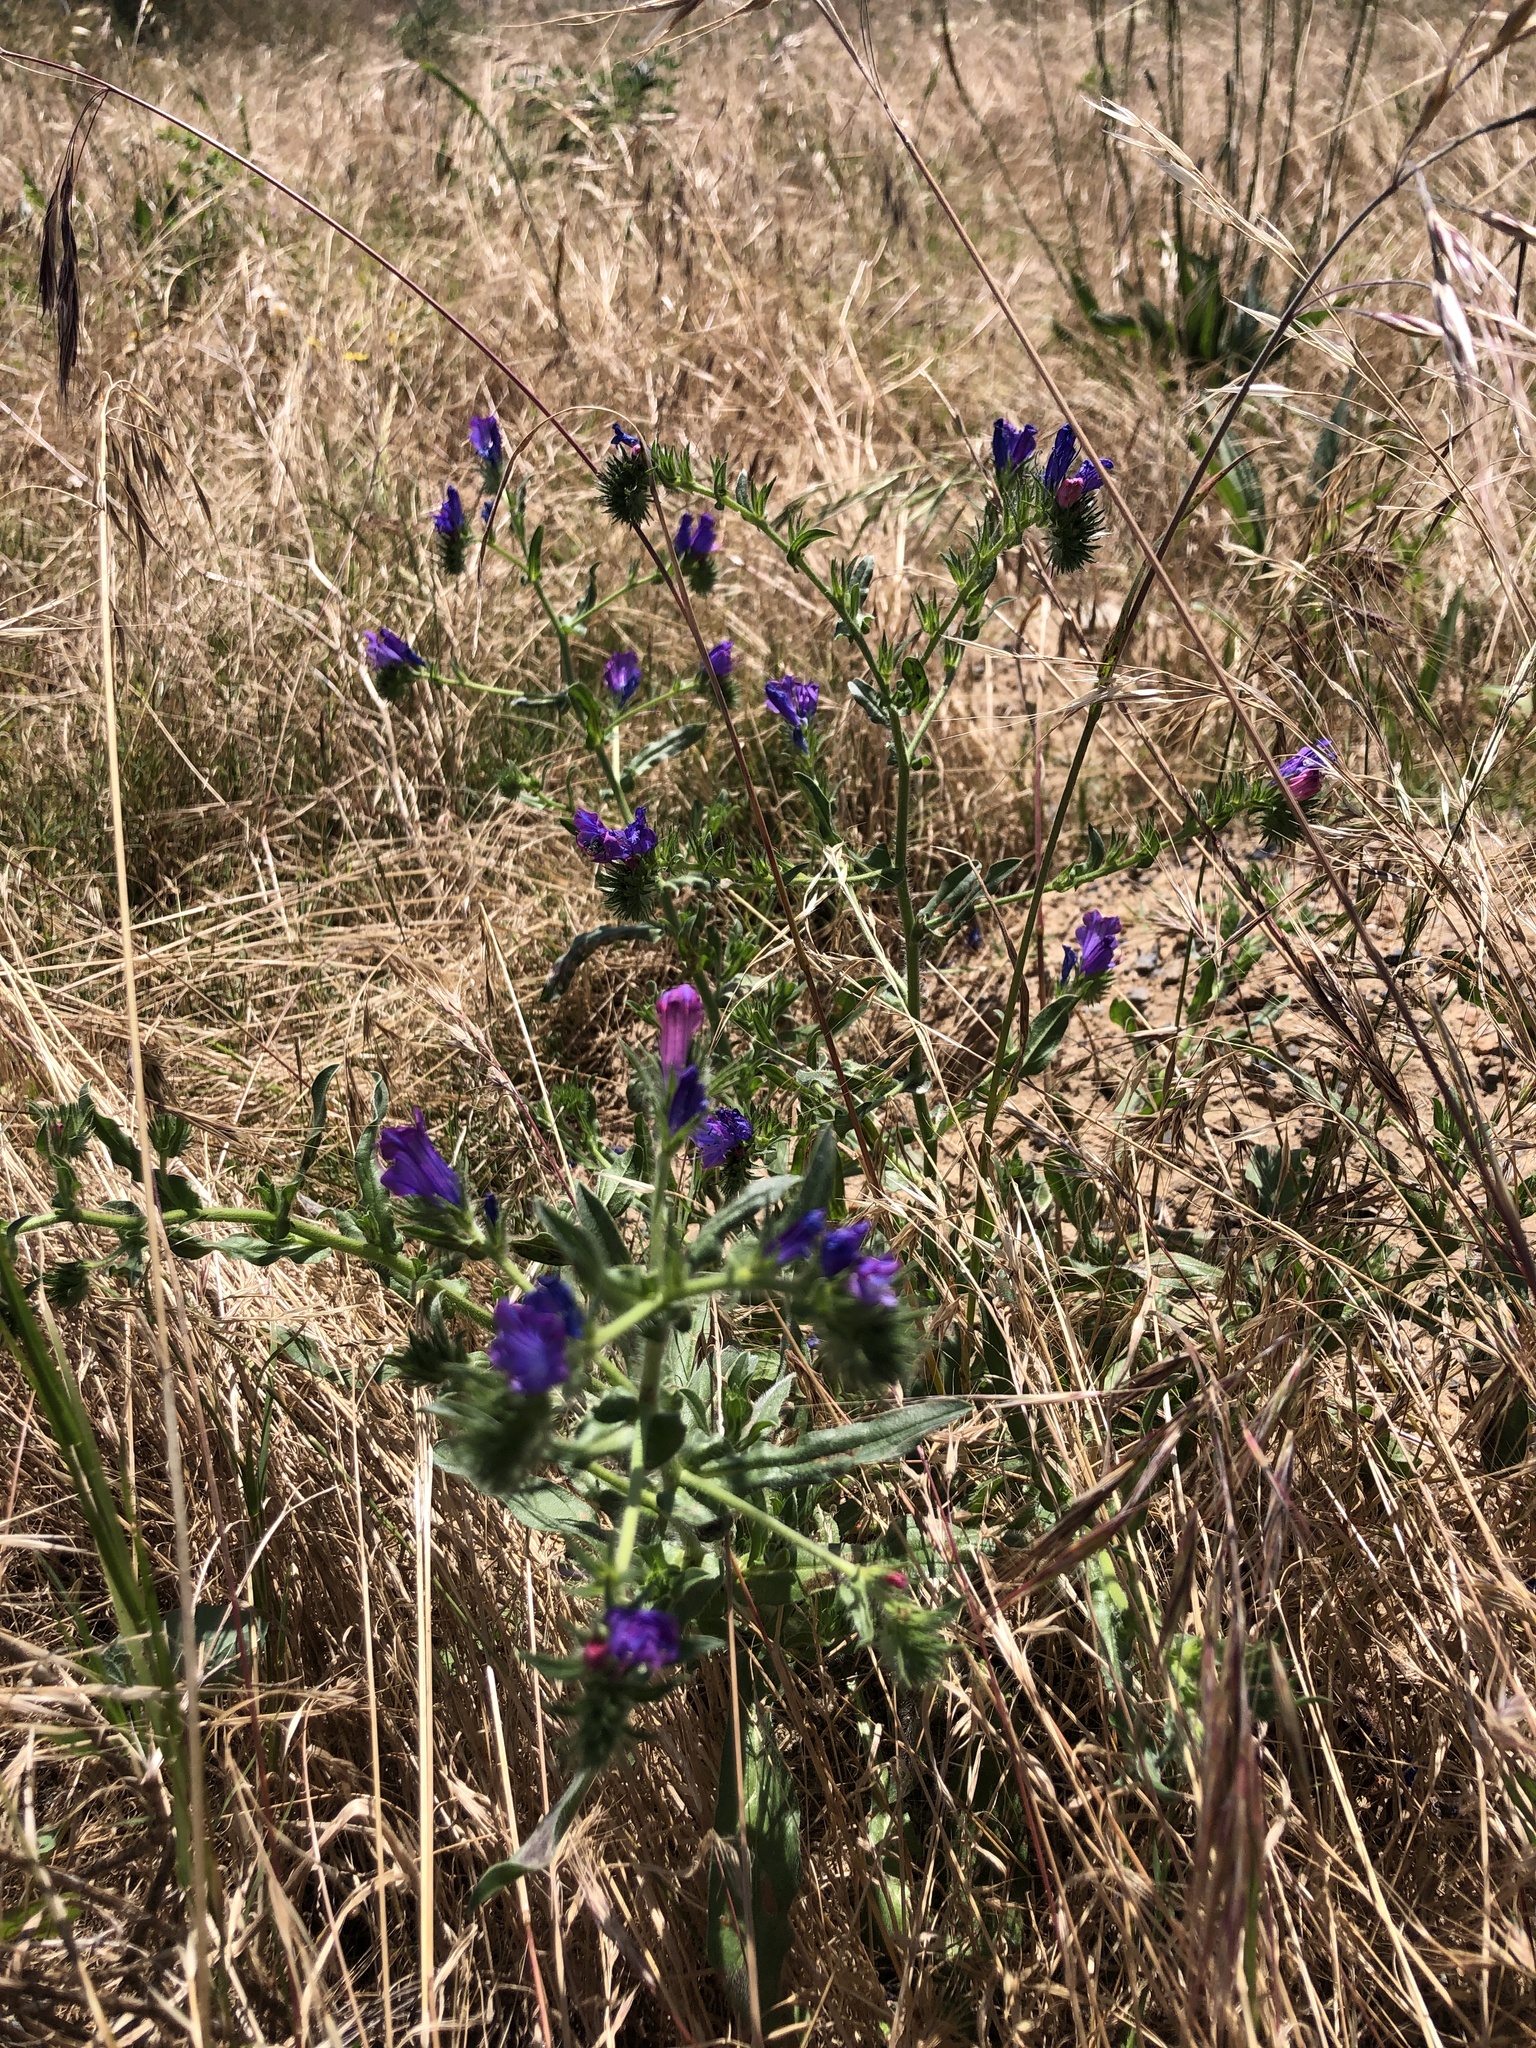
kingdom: Plantae
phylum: Tracheophyta
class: Magnoliopsida
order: Boraginales
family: Boraginaceae
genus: Echium
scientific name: Echium plantagineum
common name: Purple viper's-bugloss
